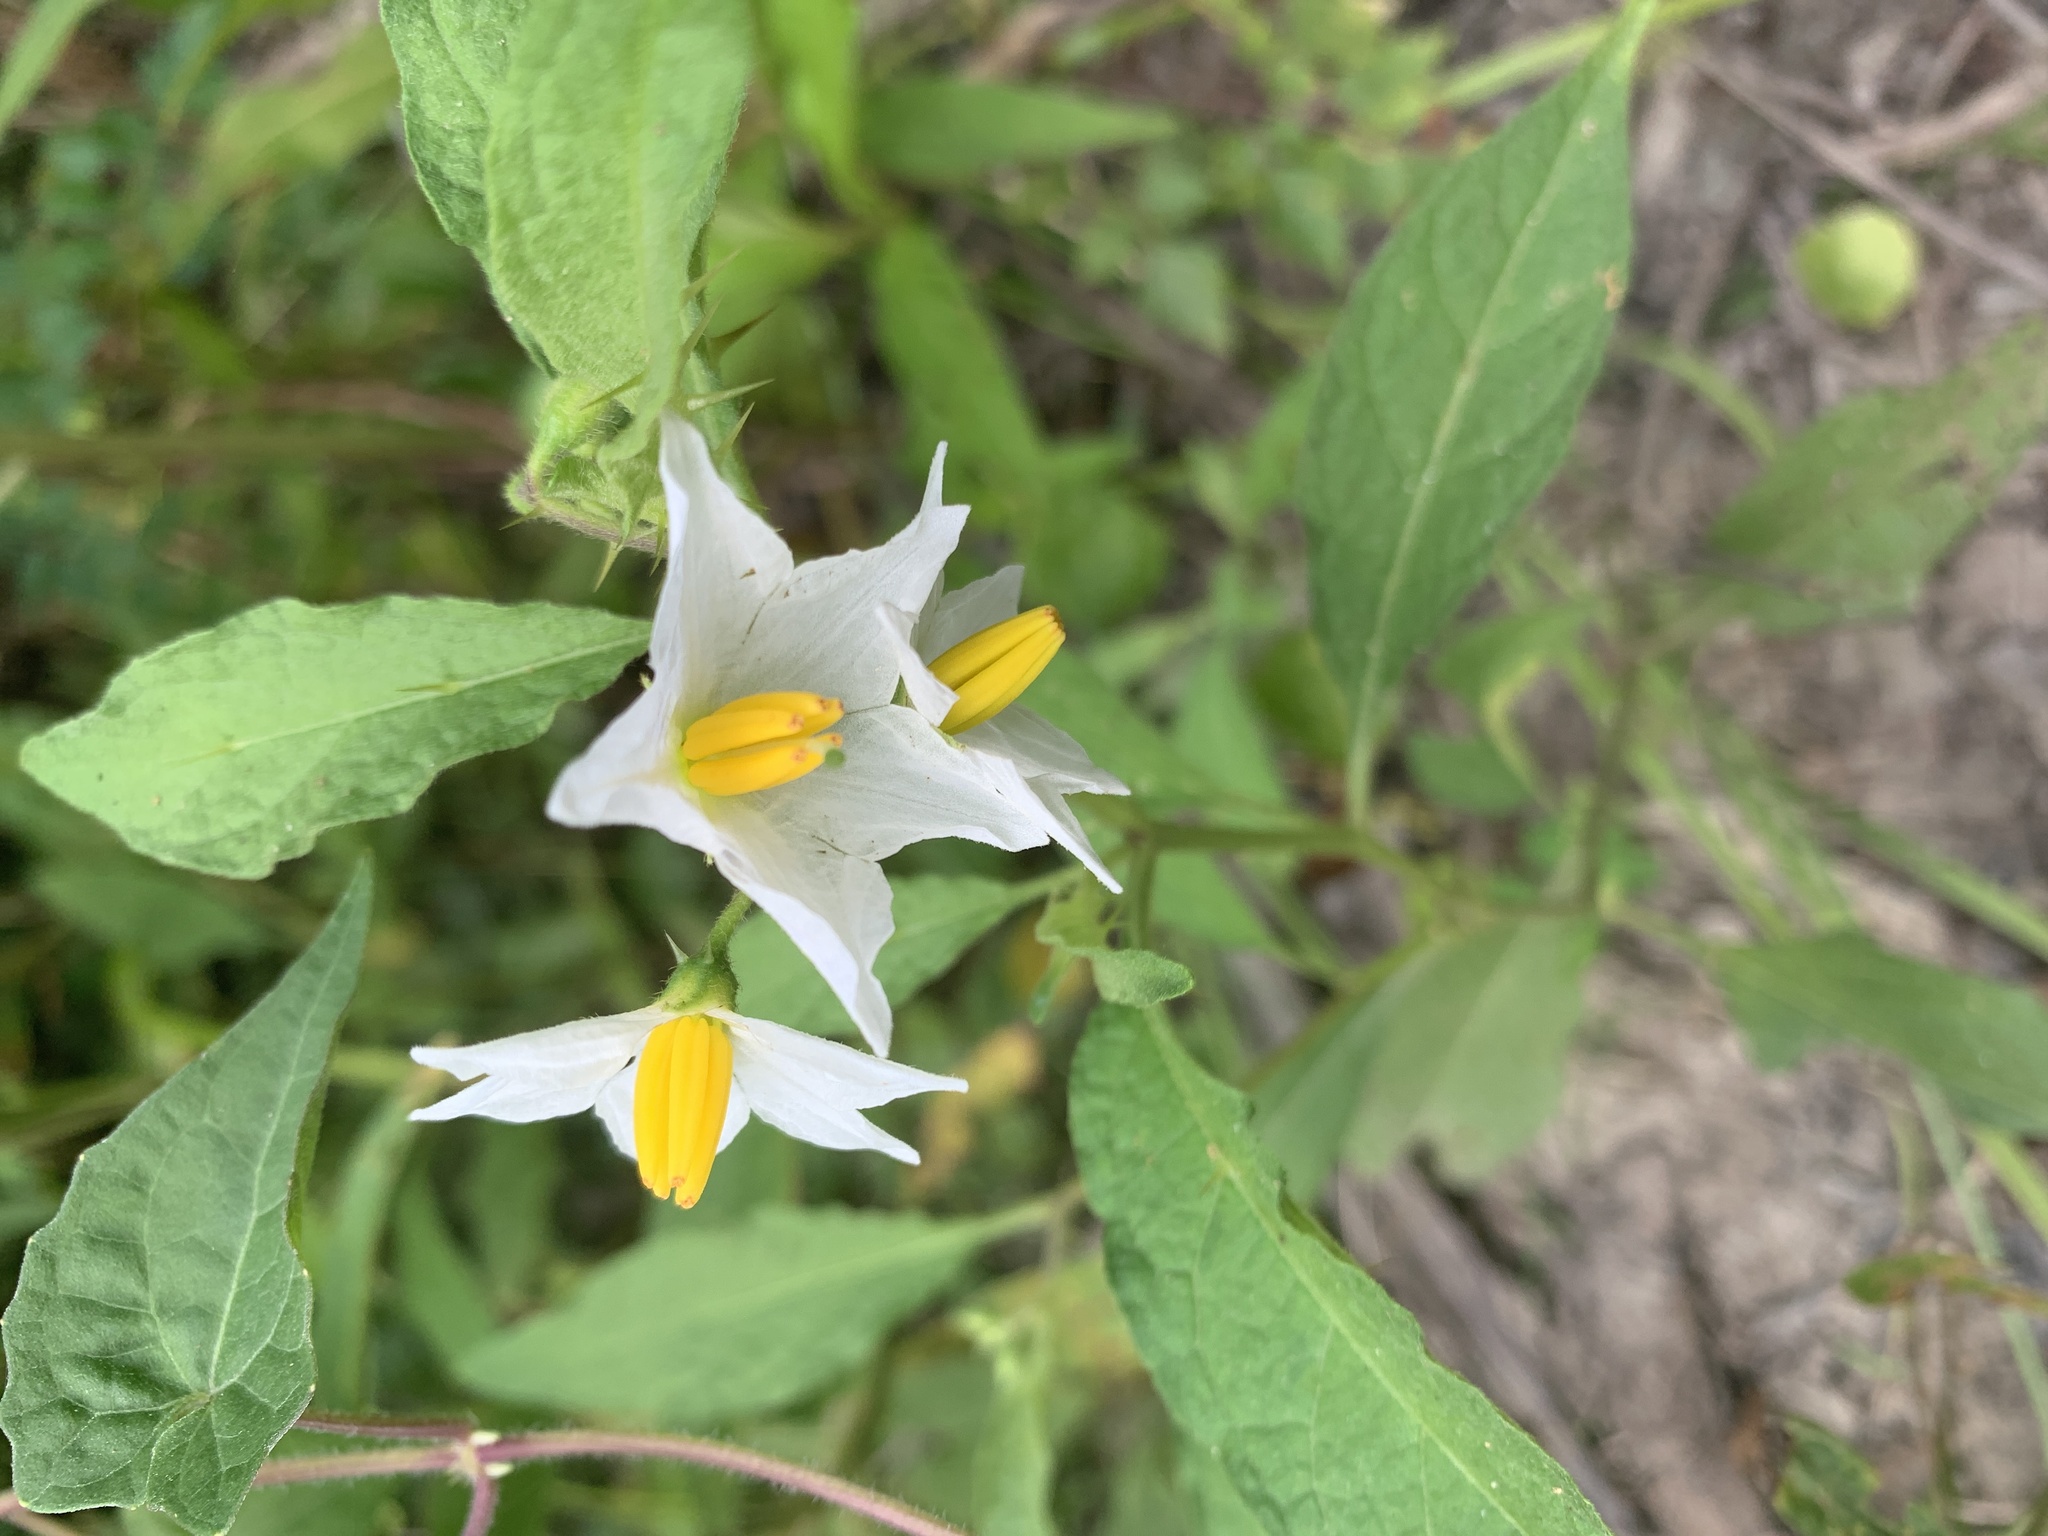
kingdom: Plantae
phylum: Tracheophyta
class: Magnoliopsida
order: Solanales
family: Solanaceae
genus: Solanum
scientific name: Solanum carolinense
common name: Horse-nettle
